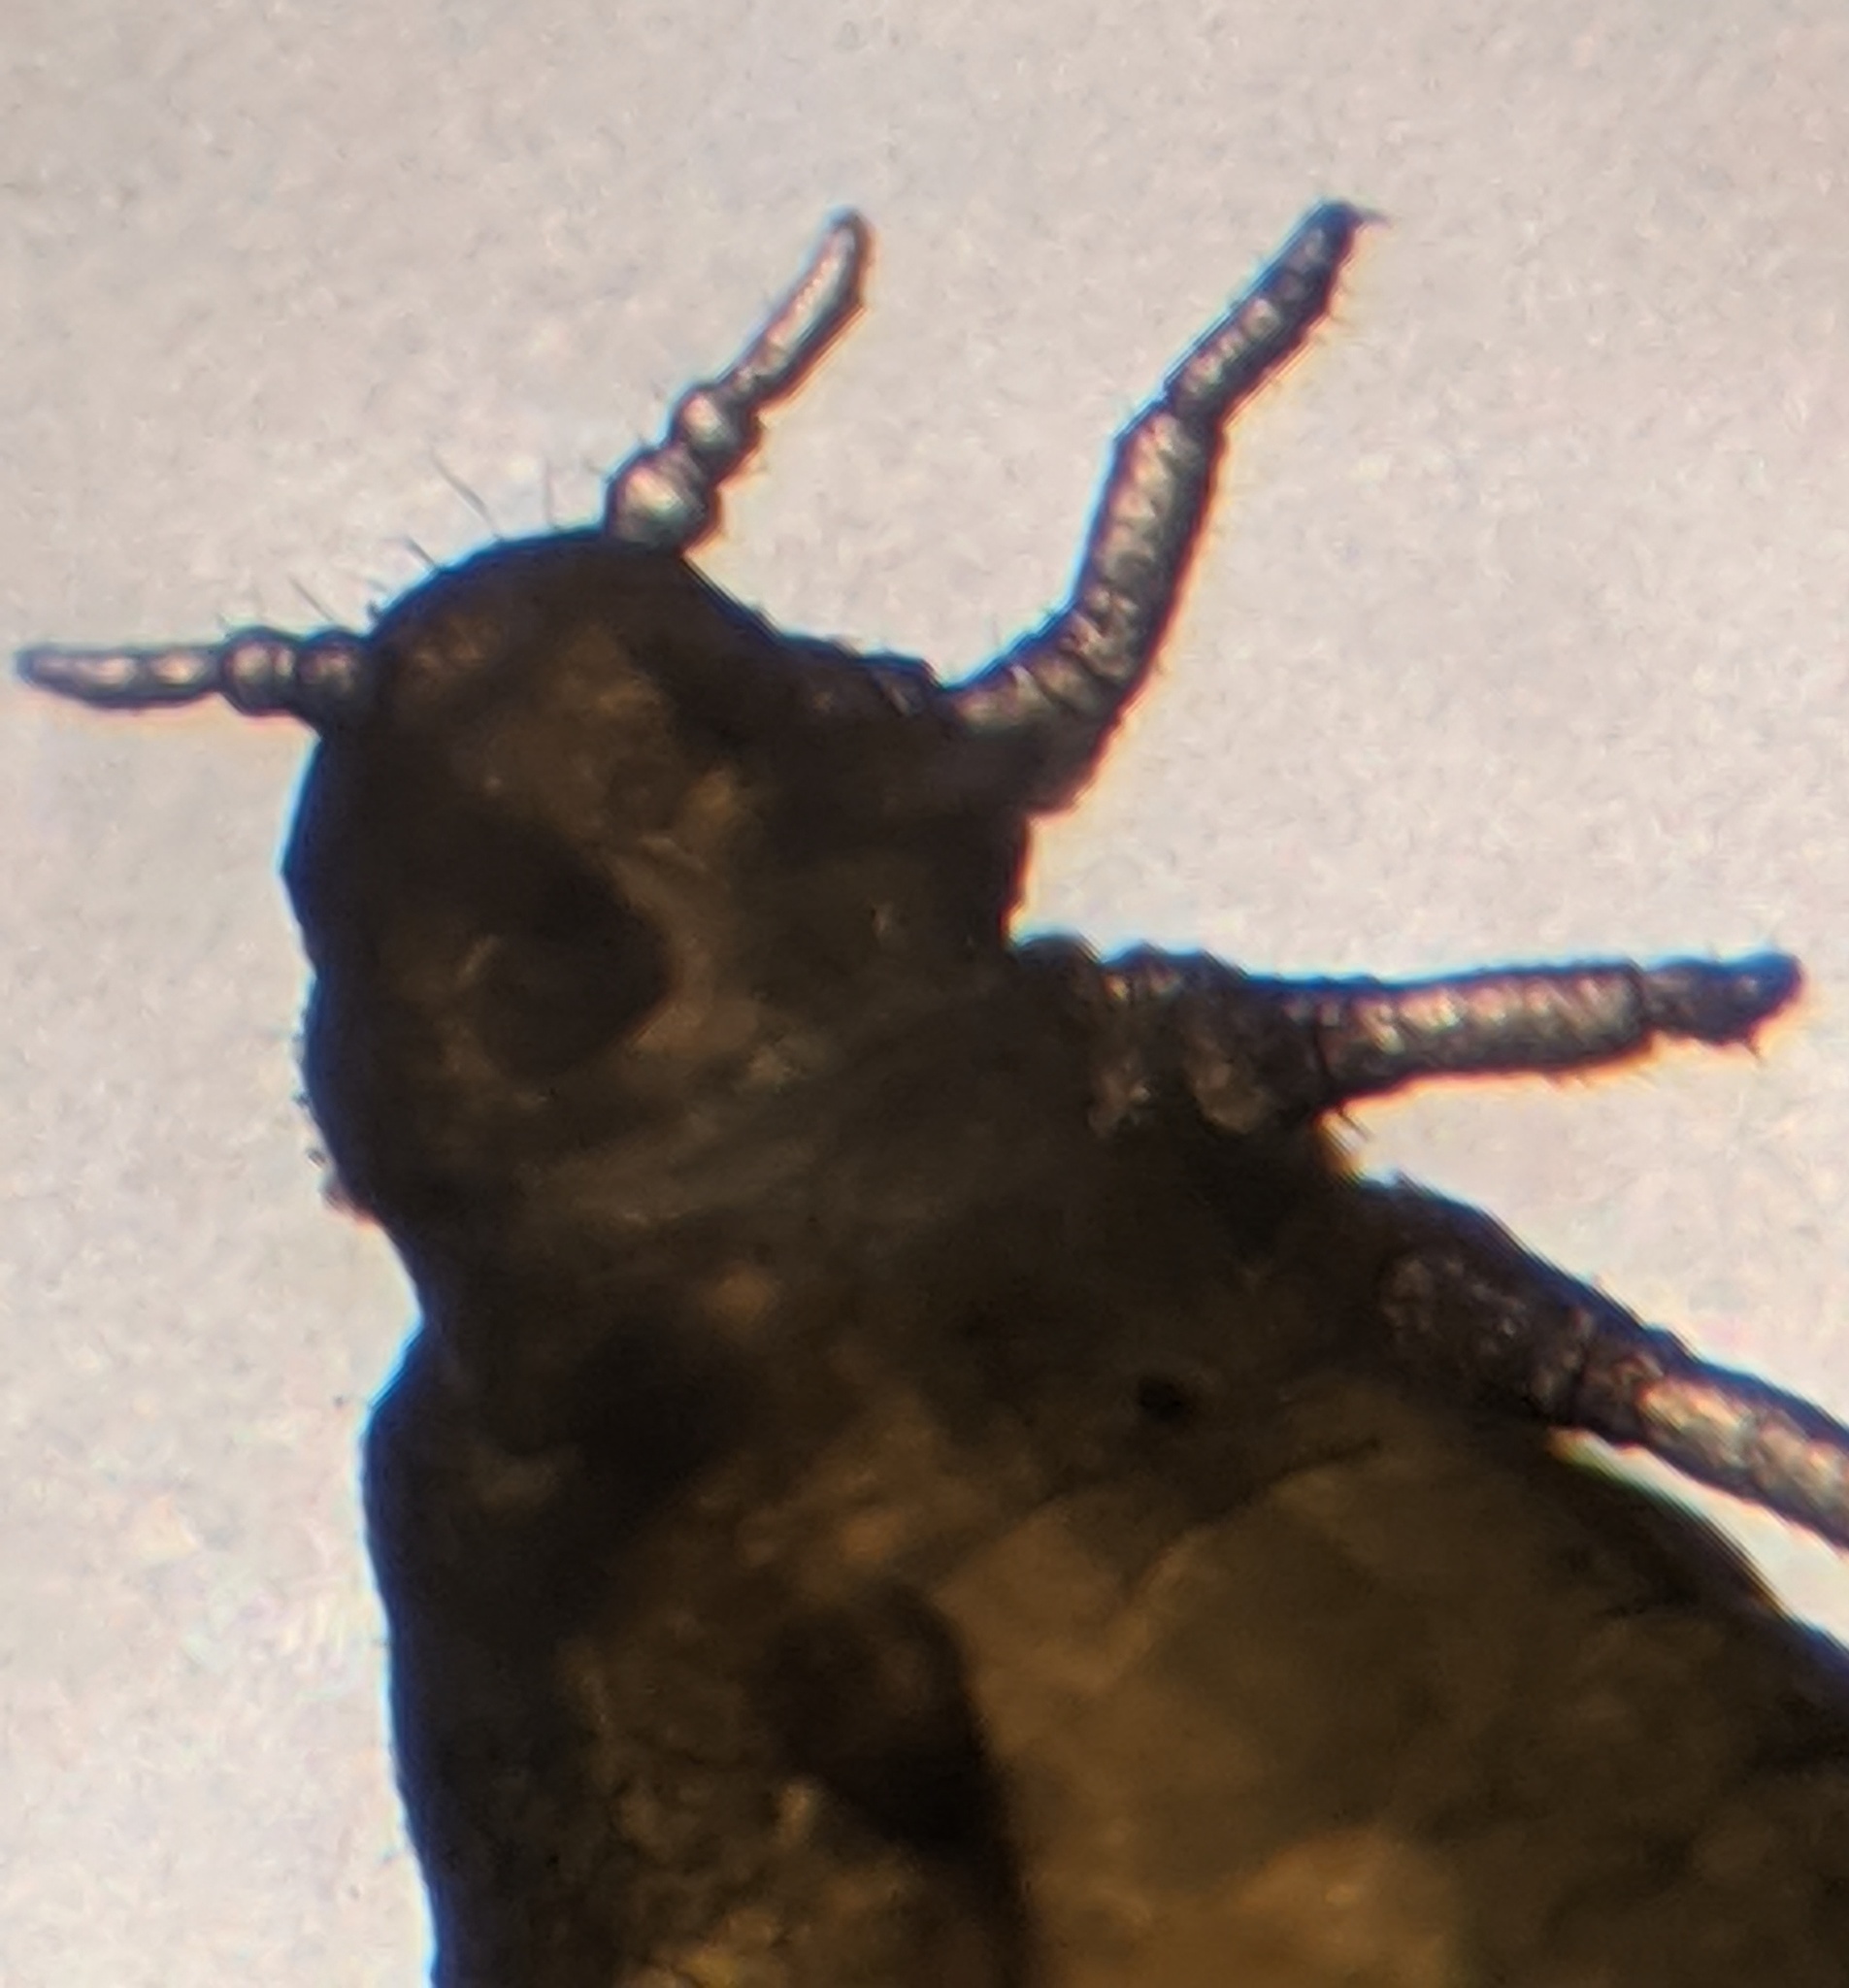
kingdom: Animalia
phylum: Arthropoda
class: Insecta
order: Hemiptera
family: Aphididae
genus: Tetraneura
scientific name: Tetraneura nigriabdominalis
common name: Aphid
